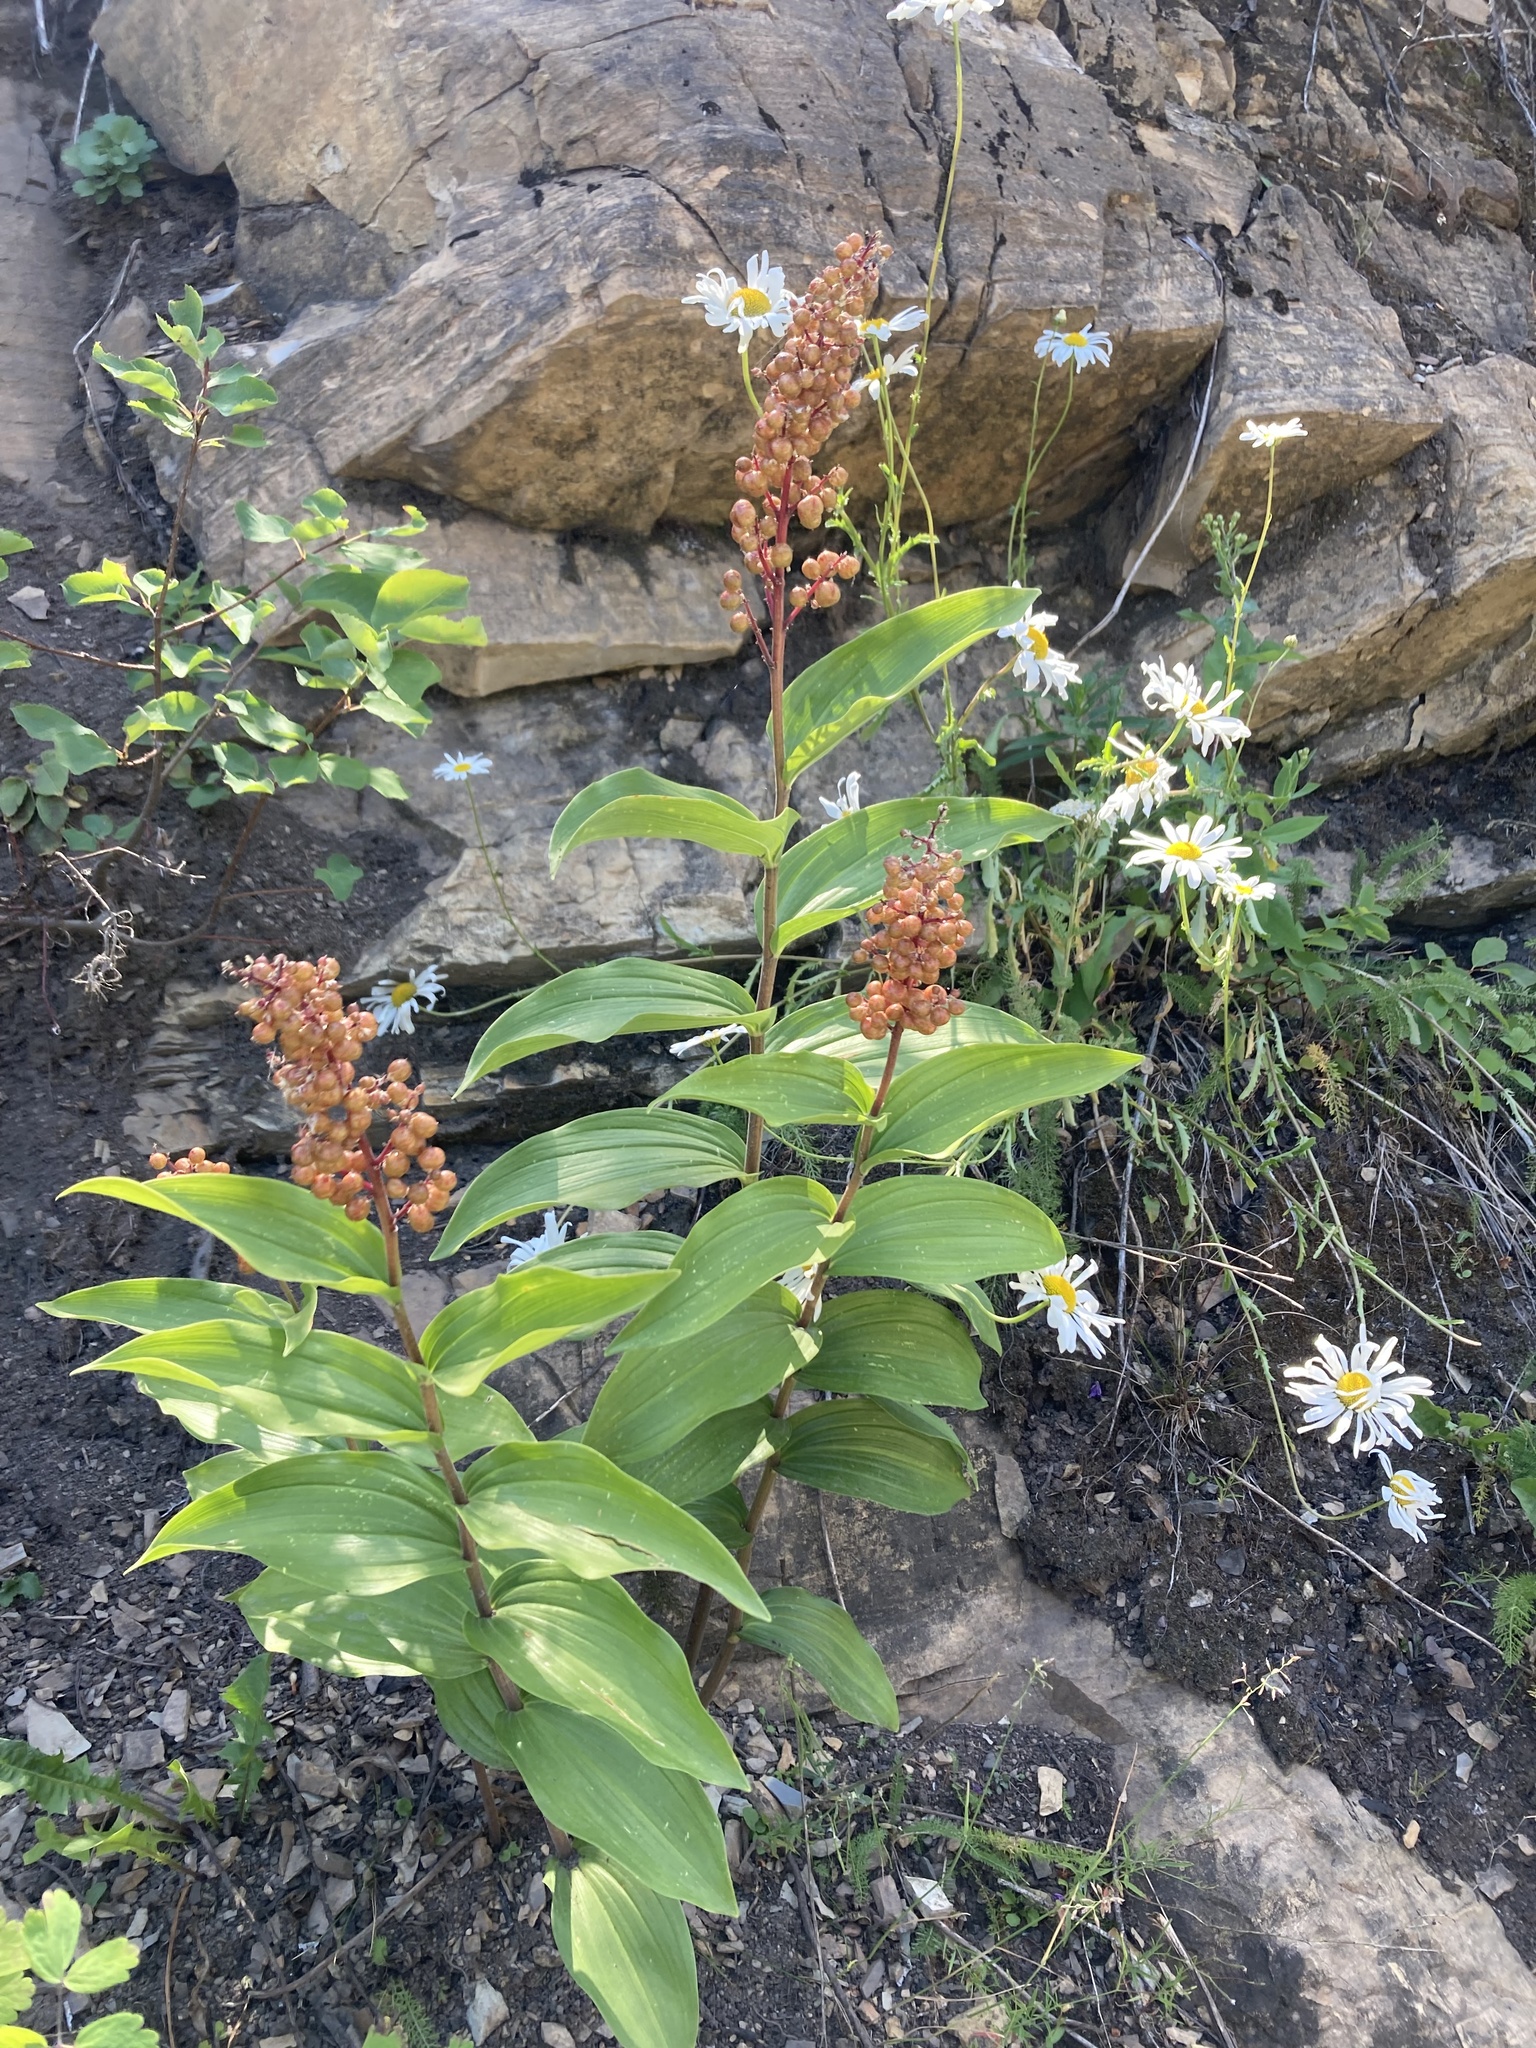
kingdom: Plantae
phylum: Tracheophyta
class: Liliopsida
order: Asparagales
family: Asparagaceae
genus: Maianthemum
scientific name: Maianthemum racemosum
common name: False spikenard
